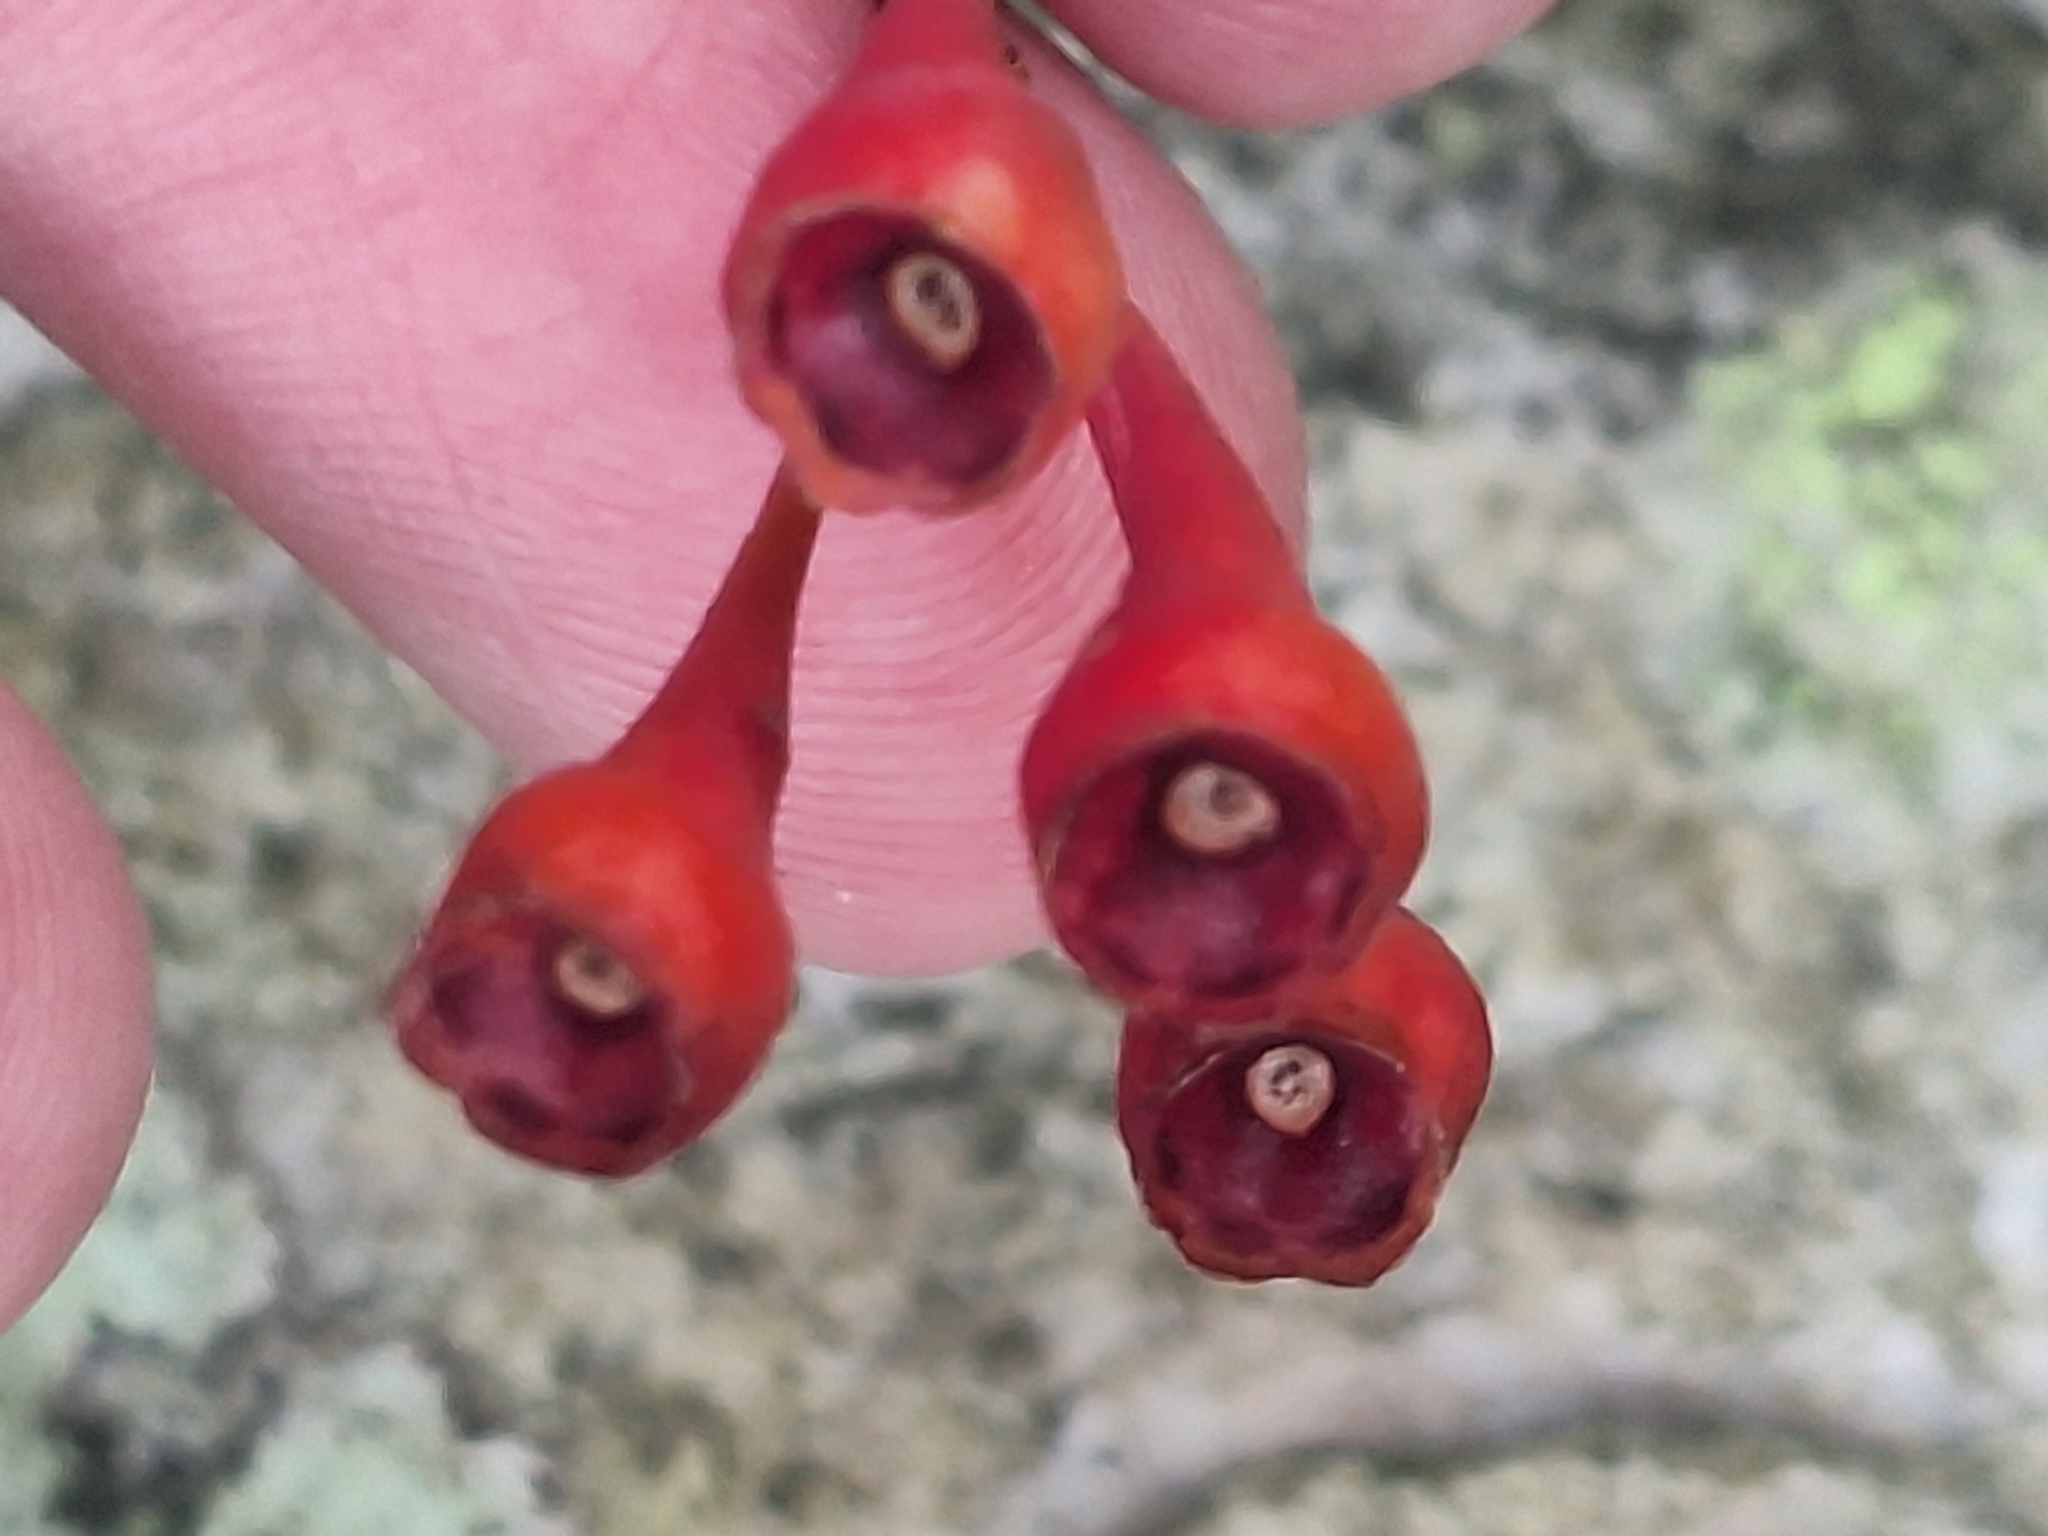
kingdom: Plantae
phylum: Tracheophyta
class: Magnoliopsida
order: Laurales
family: Lauraceae
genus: Sassafras
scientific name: Sassafras albidum
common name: Sassafras
